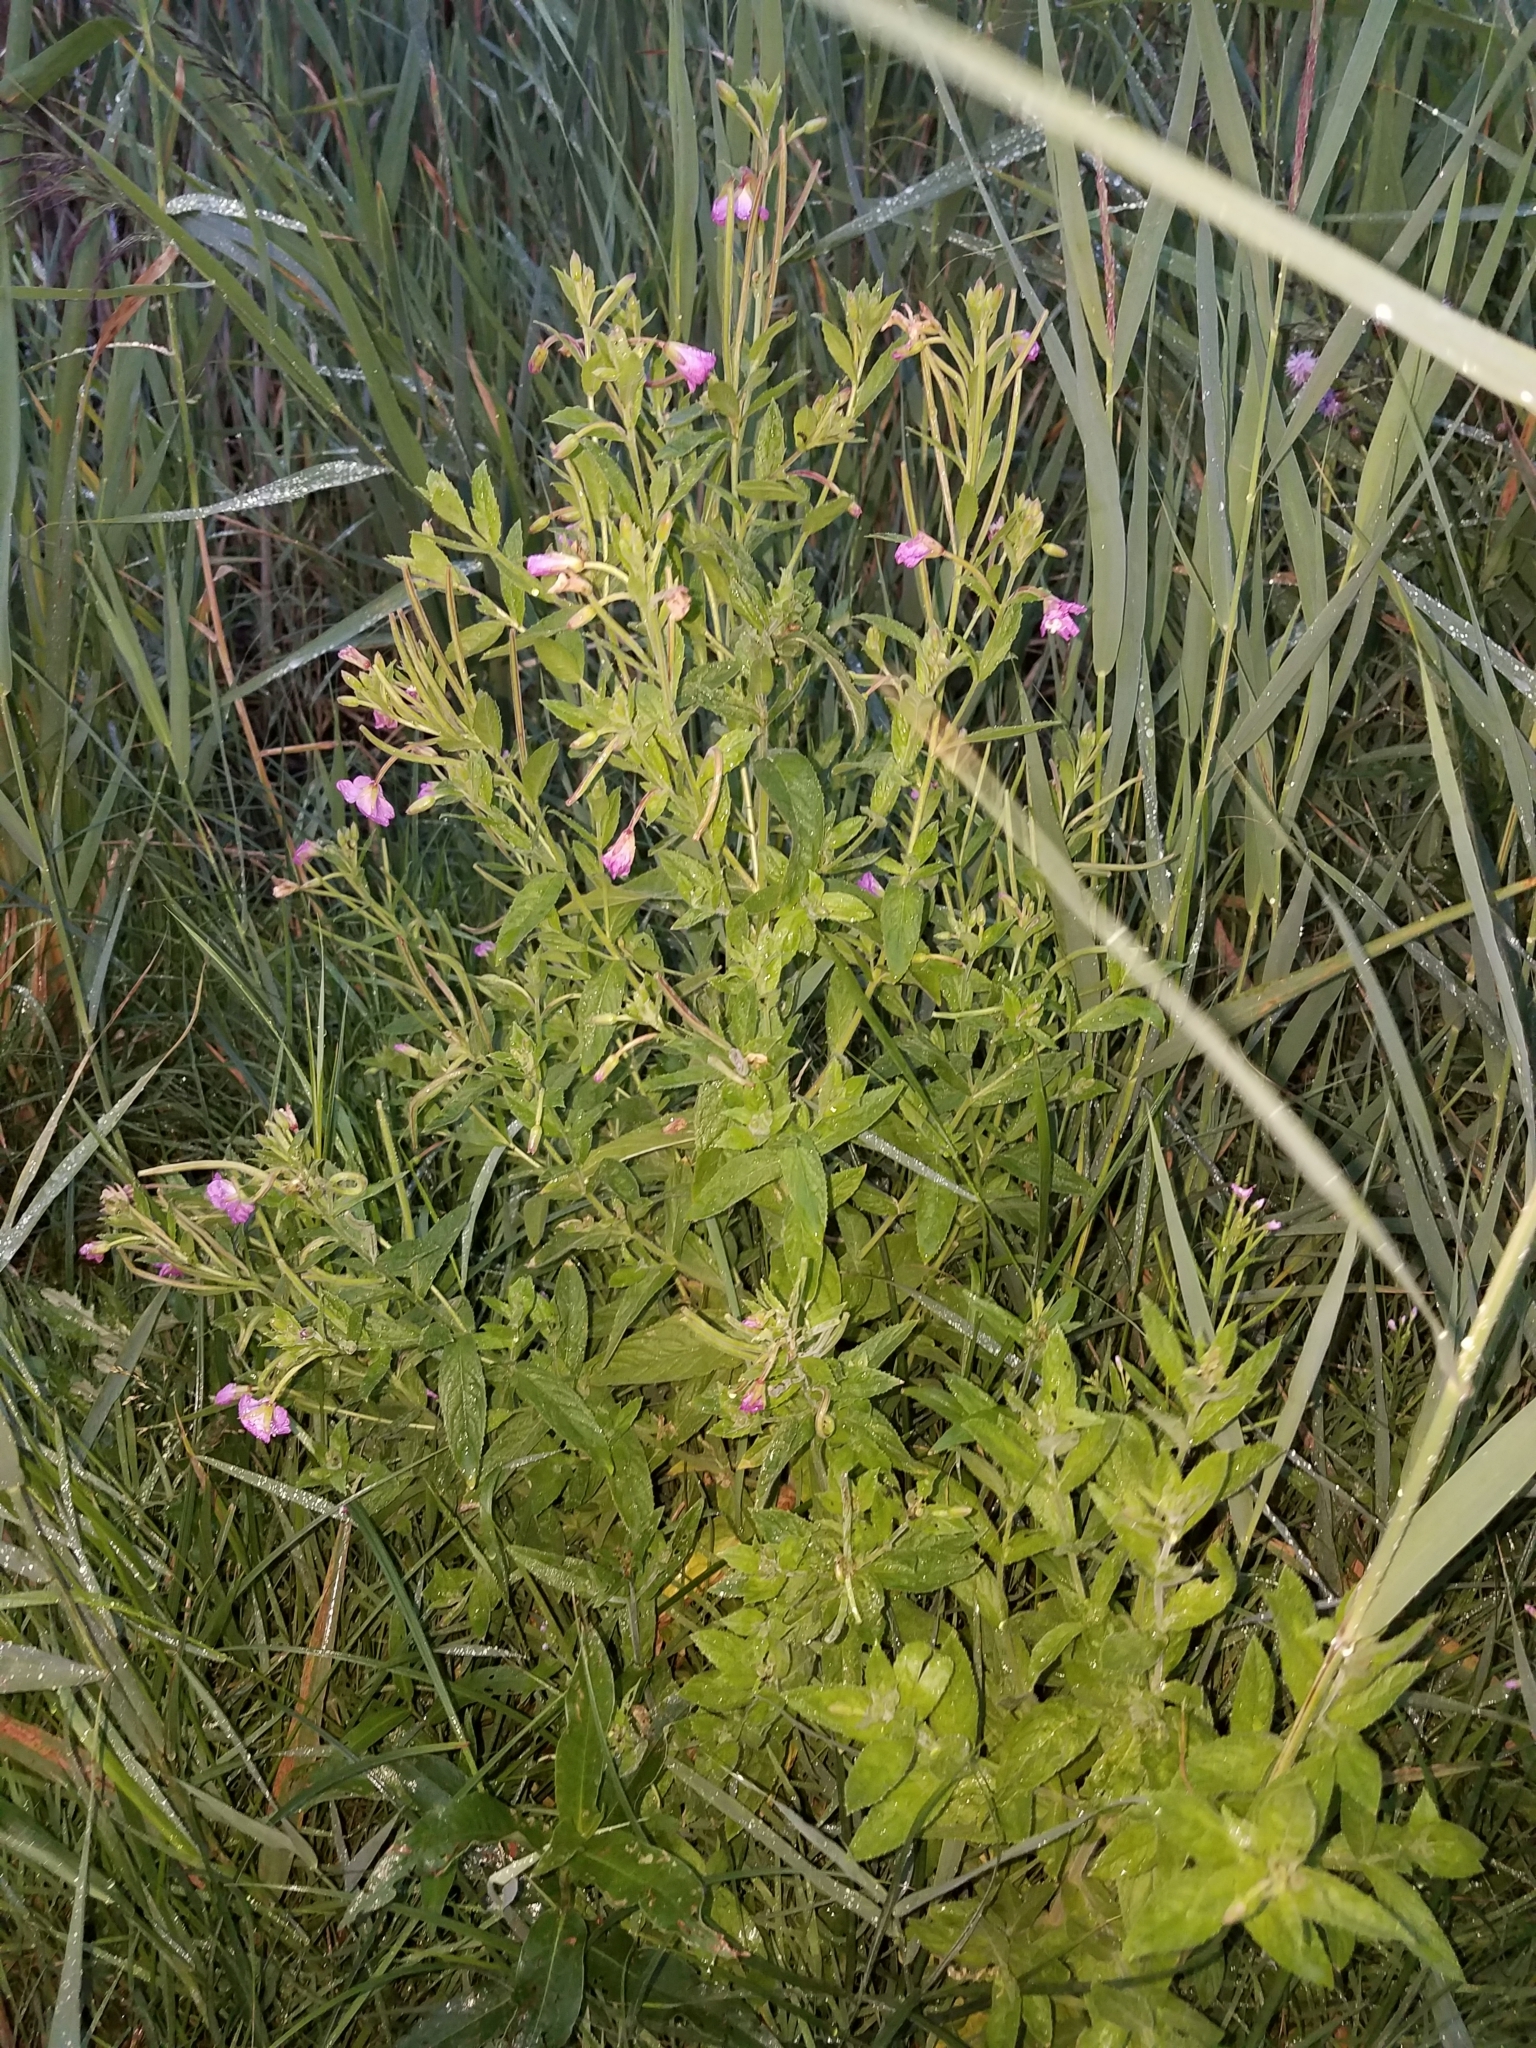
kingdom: Plantae
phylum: Tracheophyta
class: Magnoliopsida
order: Myrtales
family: Onagraceae
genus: Epilobium
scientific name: Epilobium hirsutum
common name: Great willowherb
